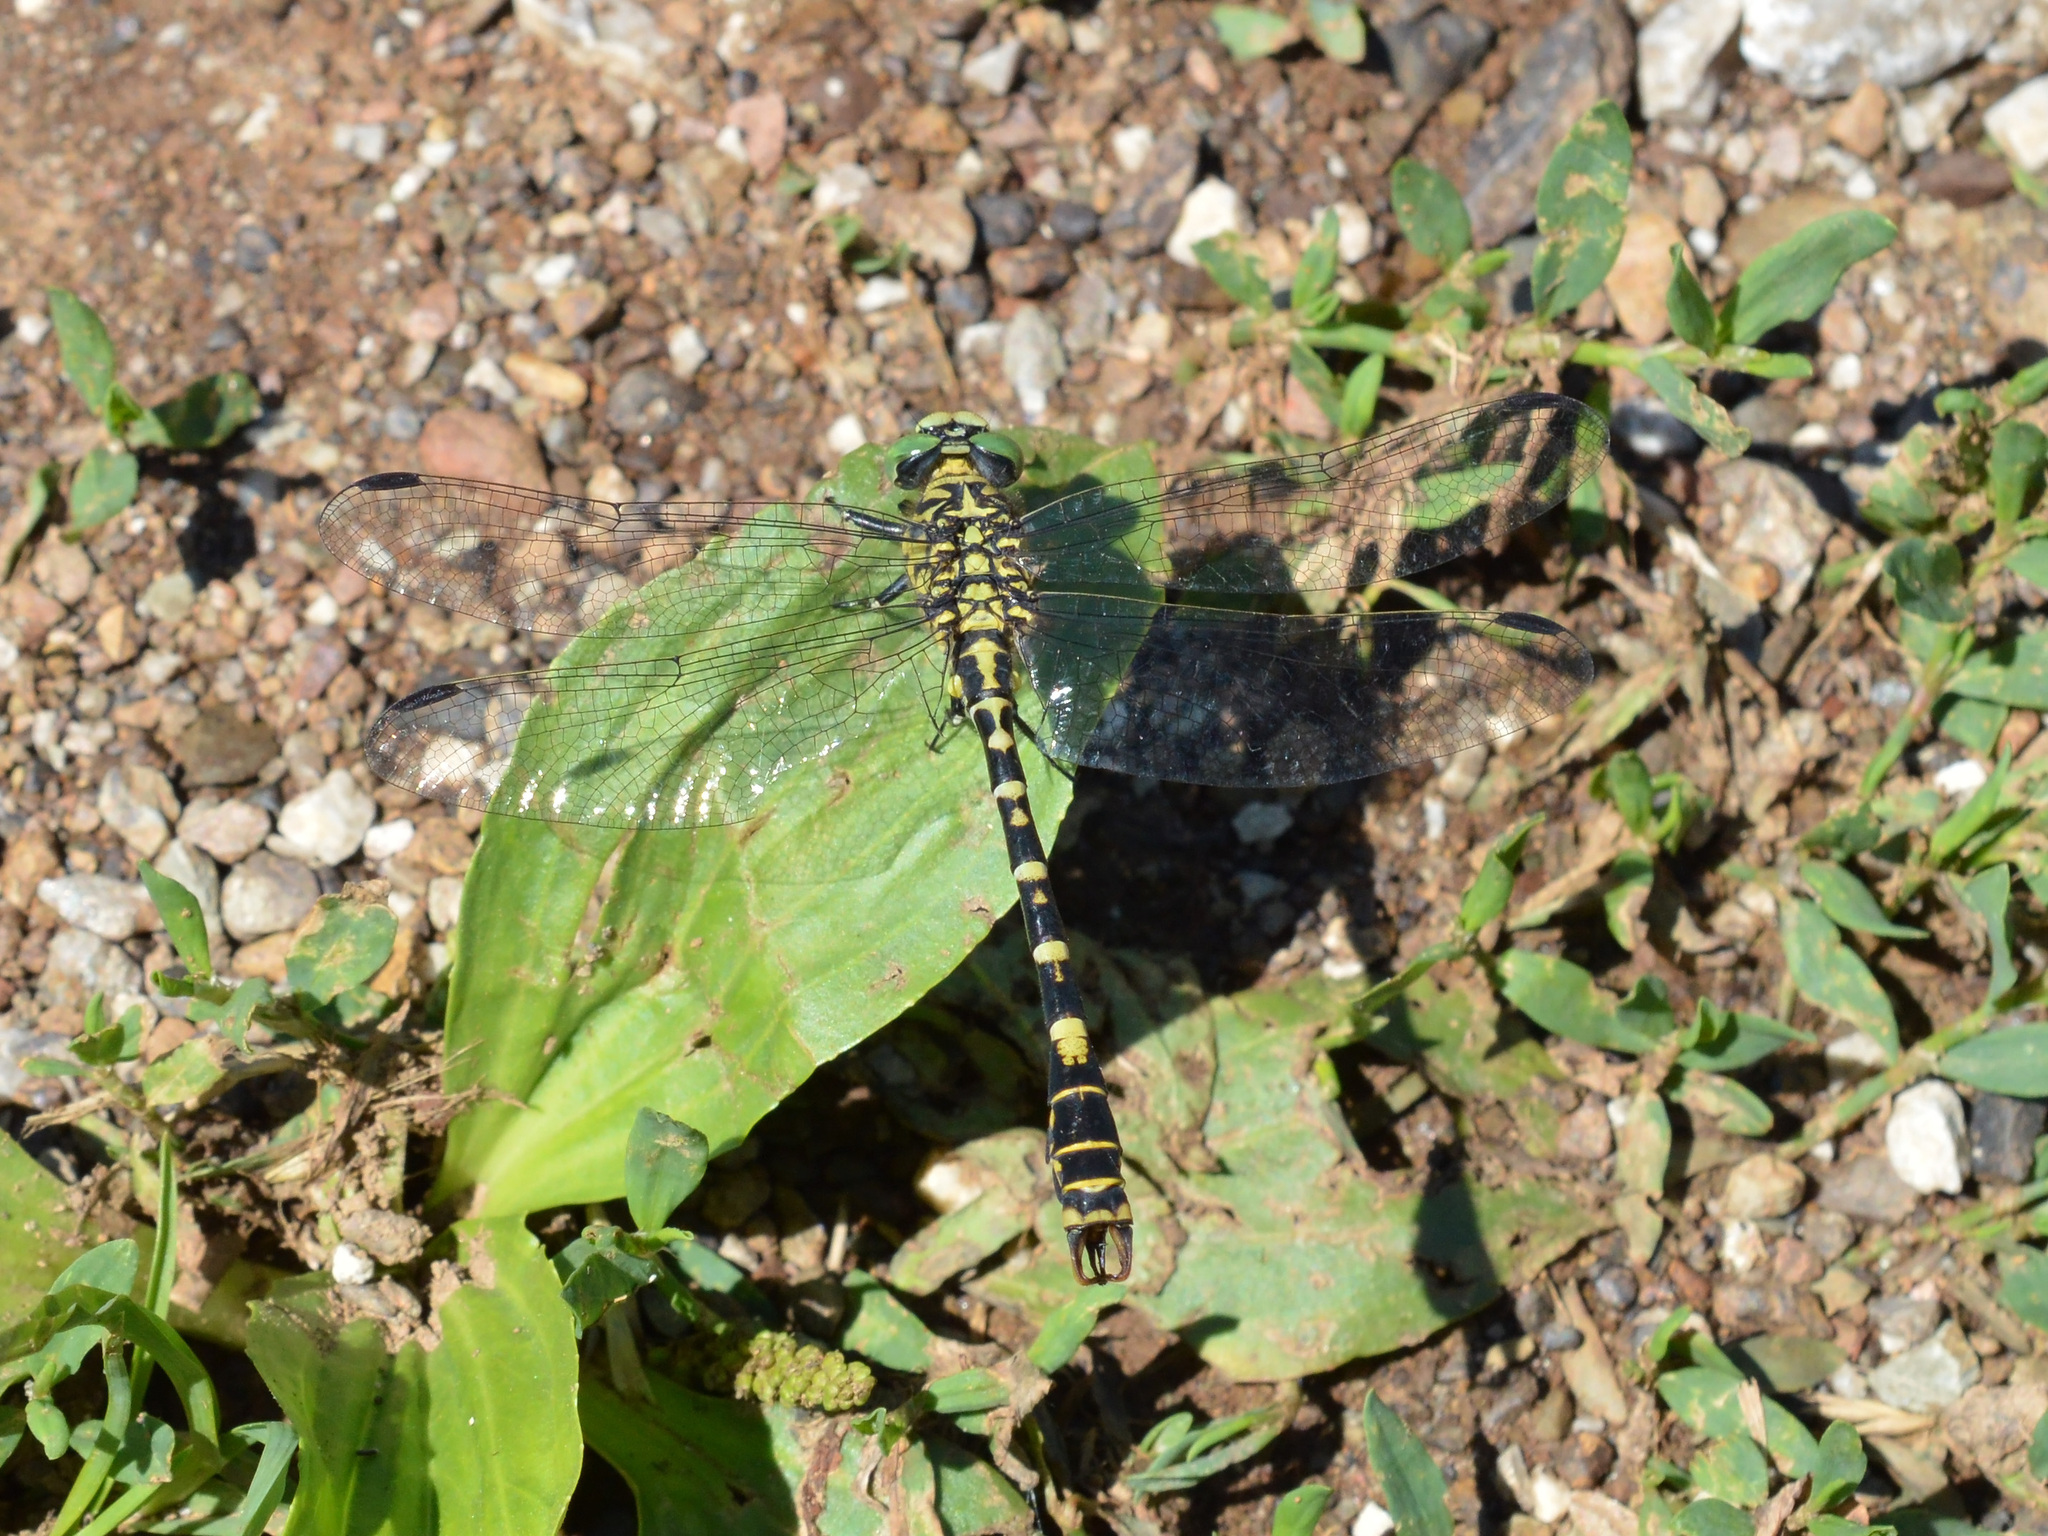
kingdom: Animalia
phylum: Arthropoda
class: Insecta
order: Odonata
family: Gomphidae
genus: Onychogomphus
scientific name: Onychogomphus forcipatus
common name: Small pincertail
